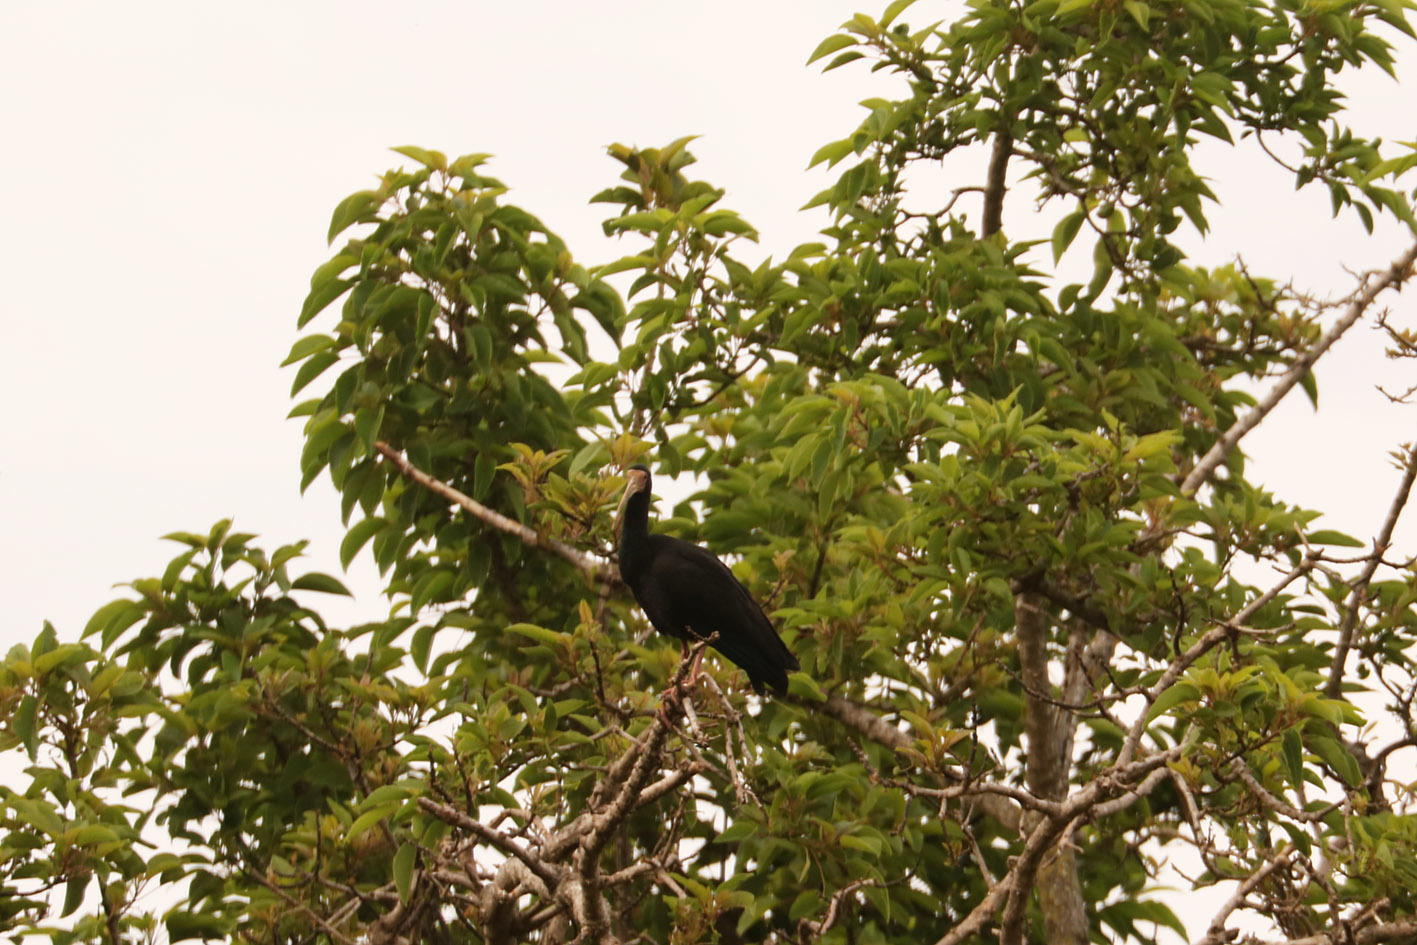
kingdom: Animalia
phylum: Chordata
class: Aves
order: Pelecaniformes
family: Threskiornithidae
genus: Phimosus
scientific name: Phimosus infuscatus
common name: Bare-faced ibis
